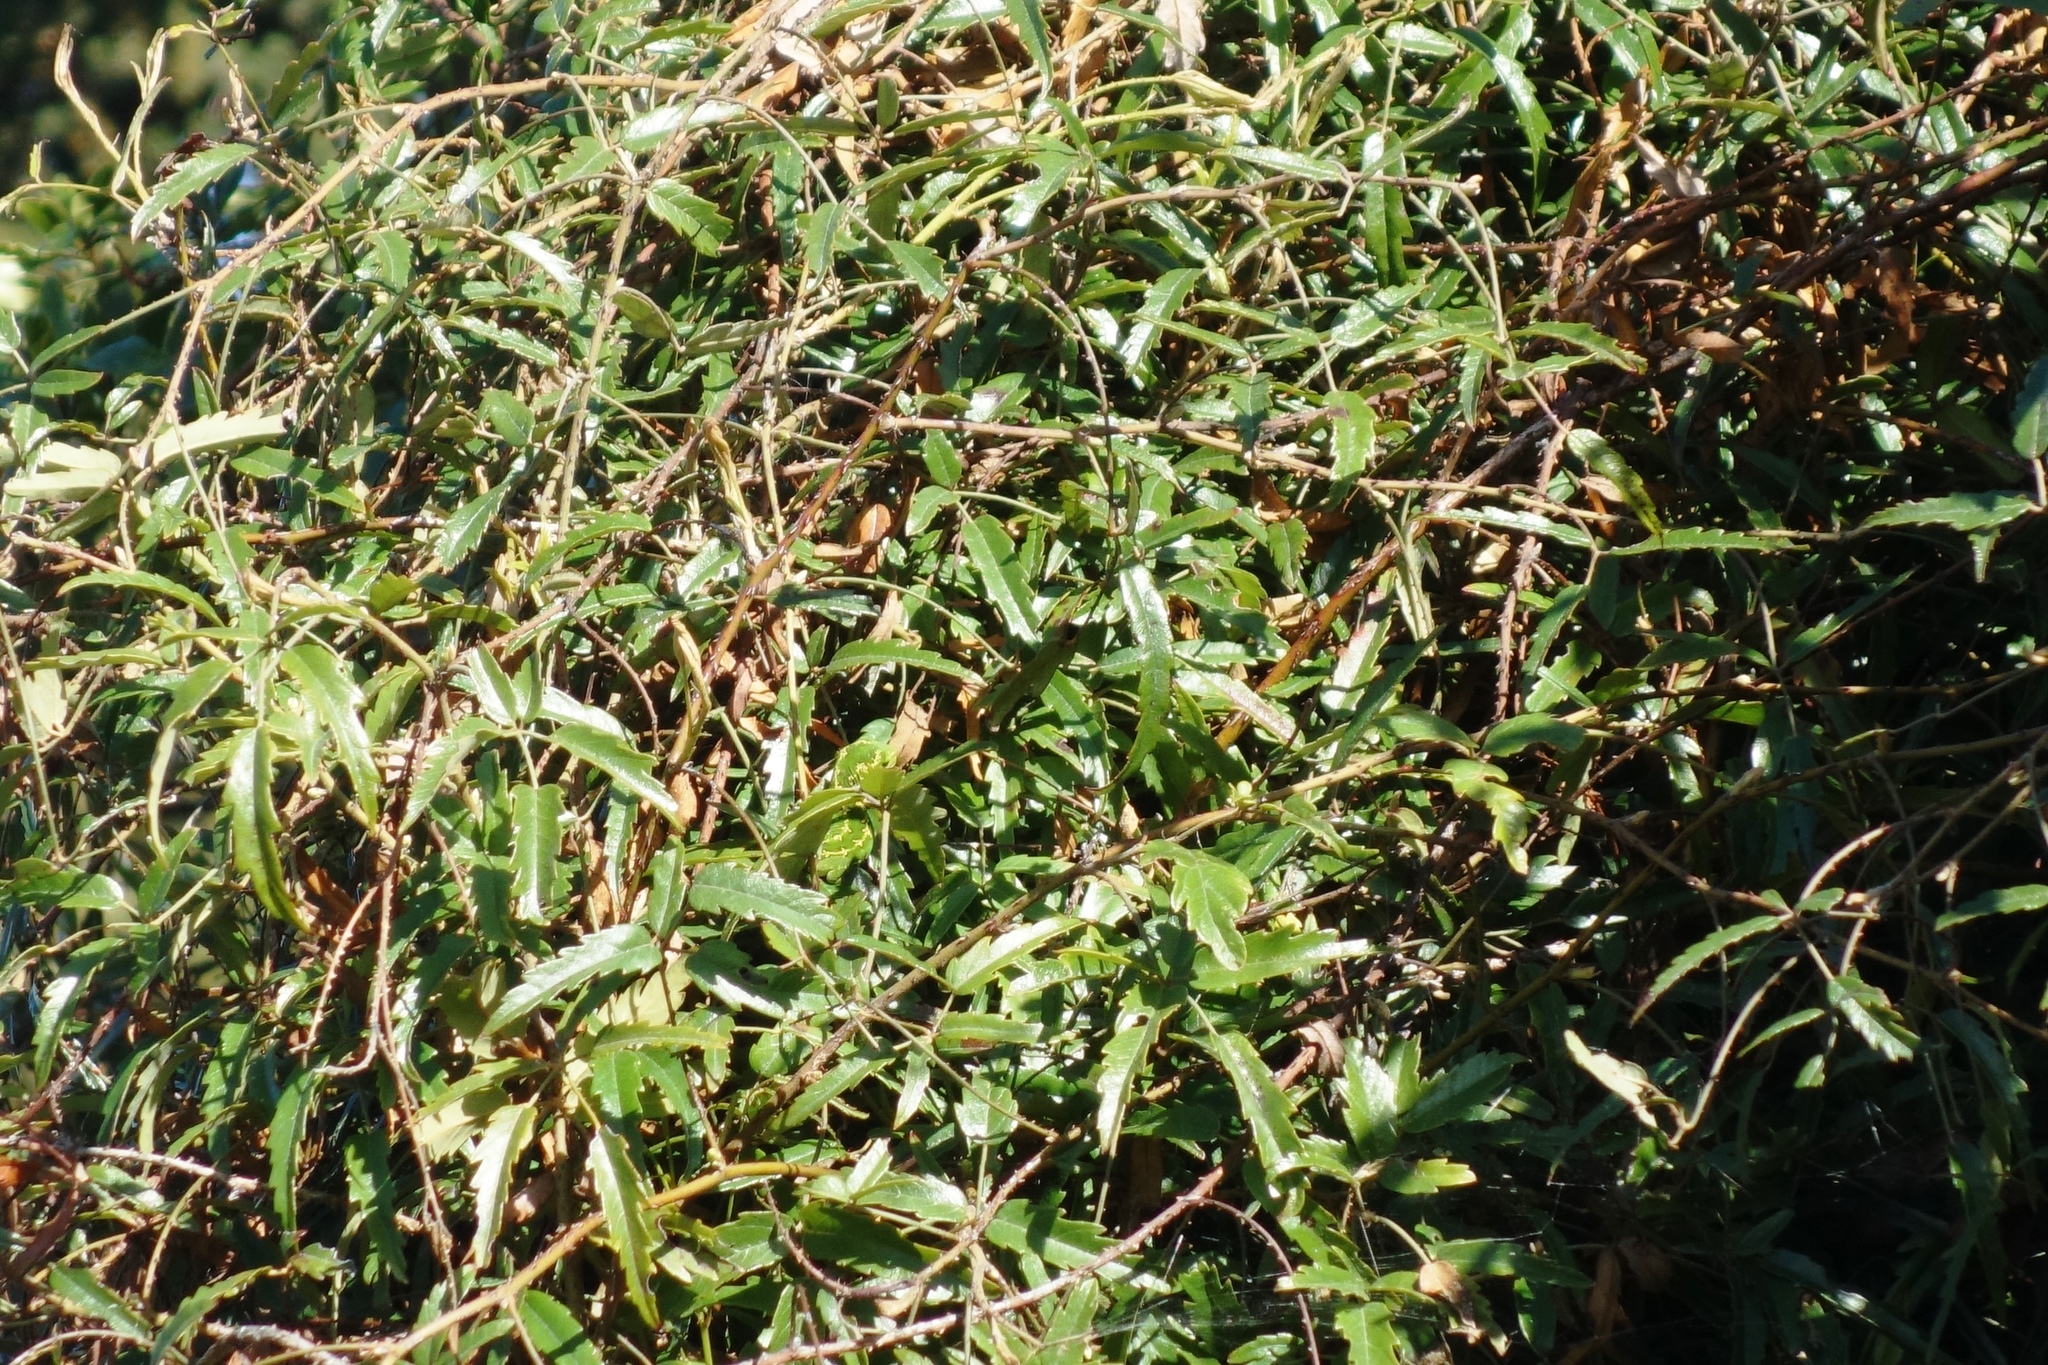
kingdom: Plantae
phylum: Tracheophyta
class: Magnoliopsida
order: Rosales
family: Rosaceae
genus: Rubus
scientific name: Rubus schmidelioides
